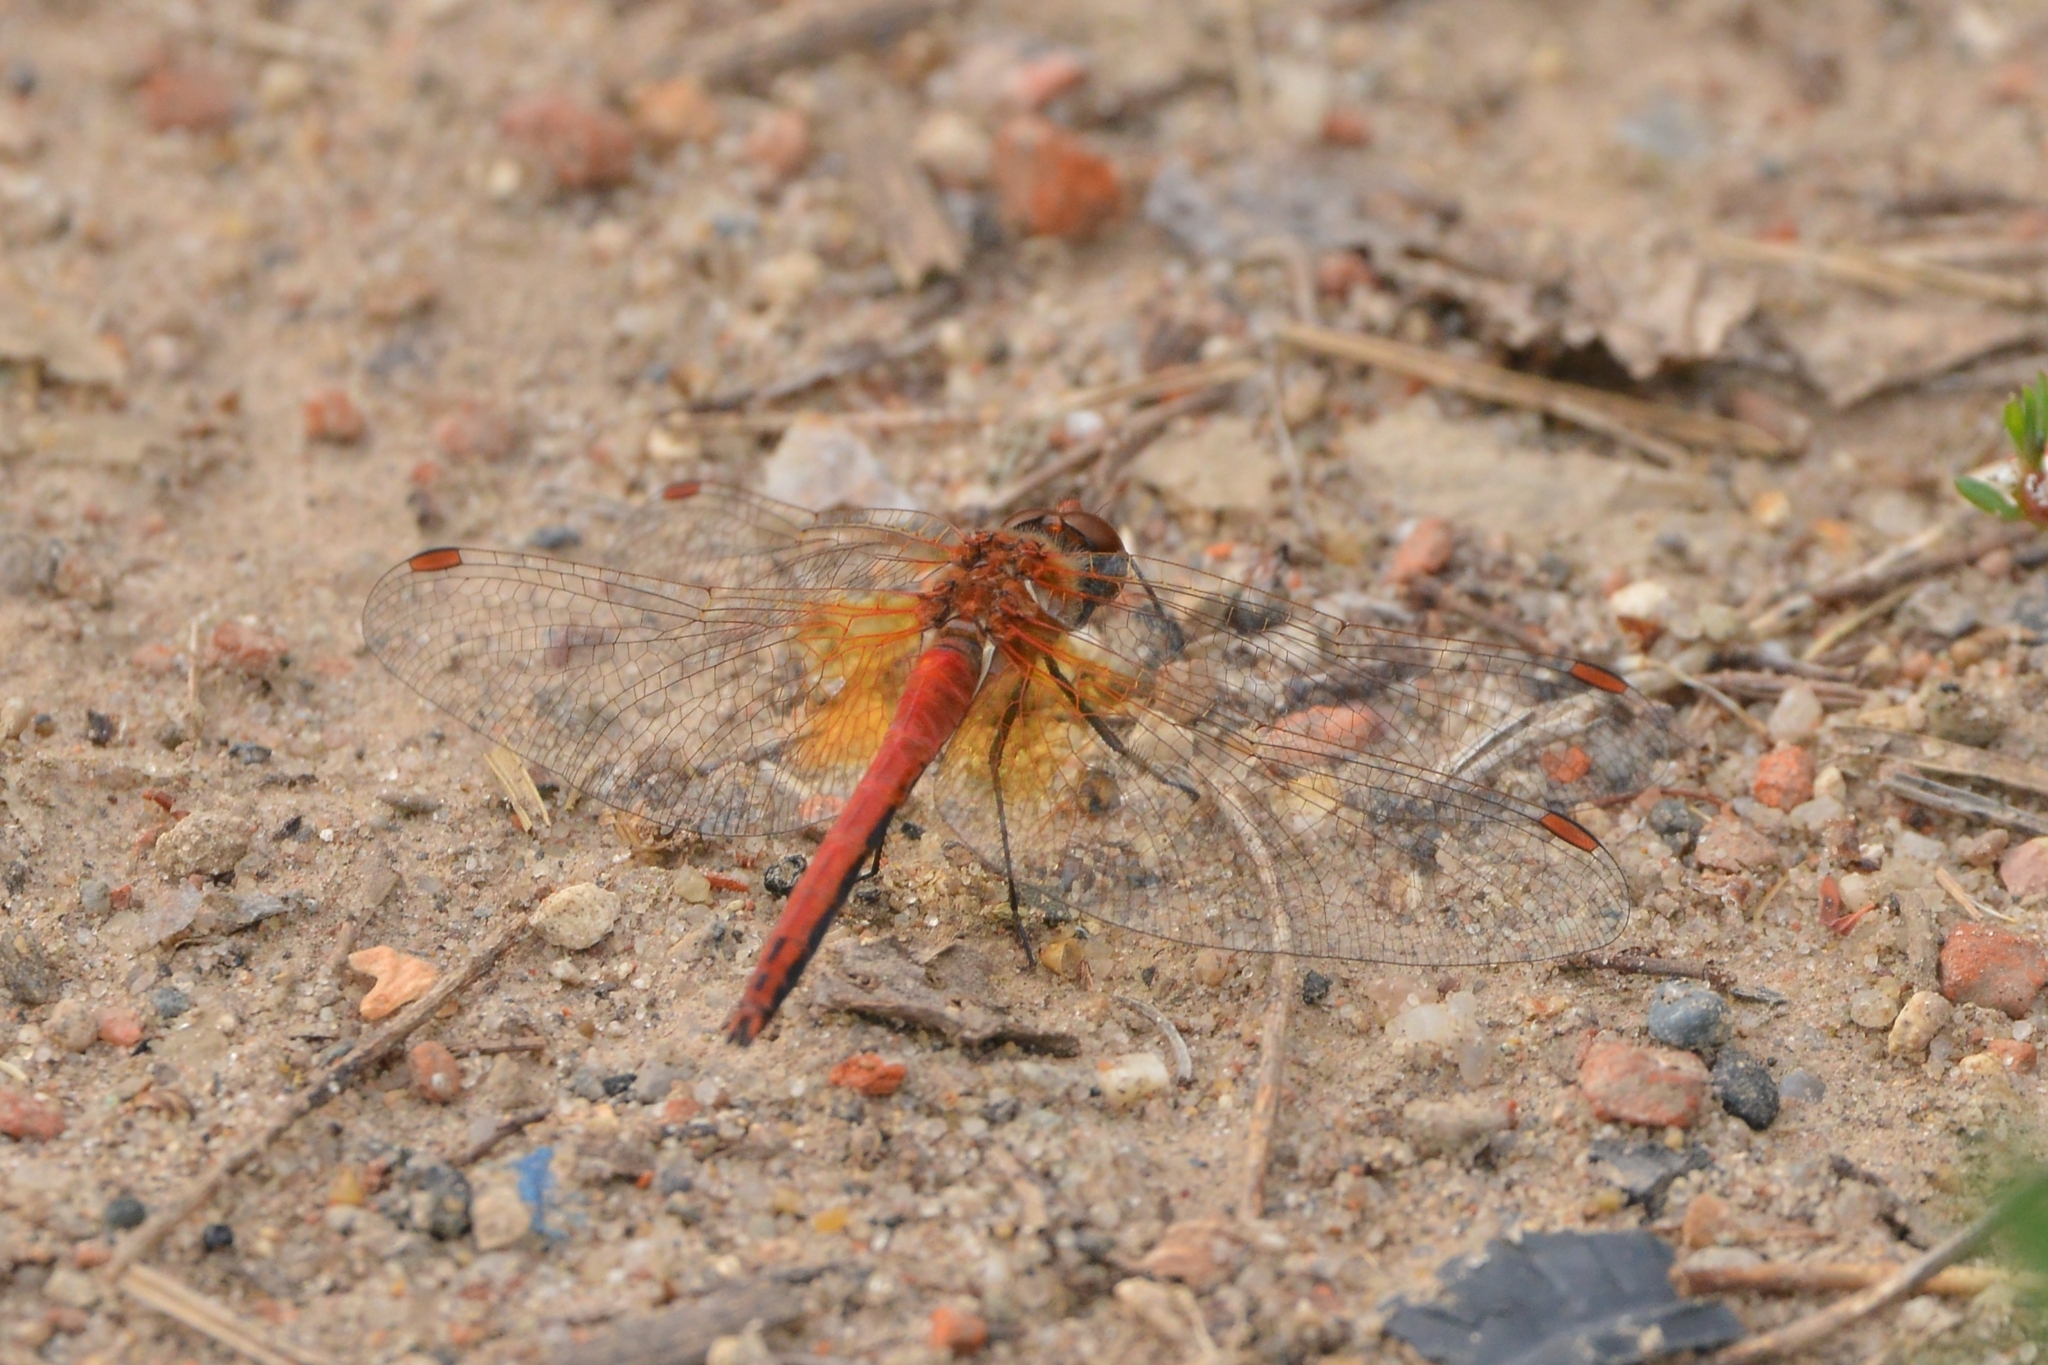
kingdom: Animalia
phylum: Arthropoda
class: Insecta
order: Odonata
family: Libellulidae
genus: Sympetrum
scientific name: Sympetrum flaveolum
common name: Yellow-winged darter
